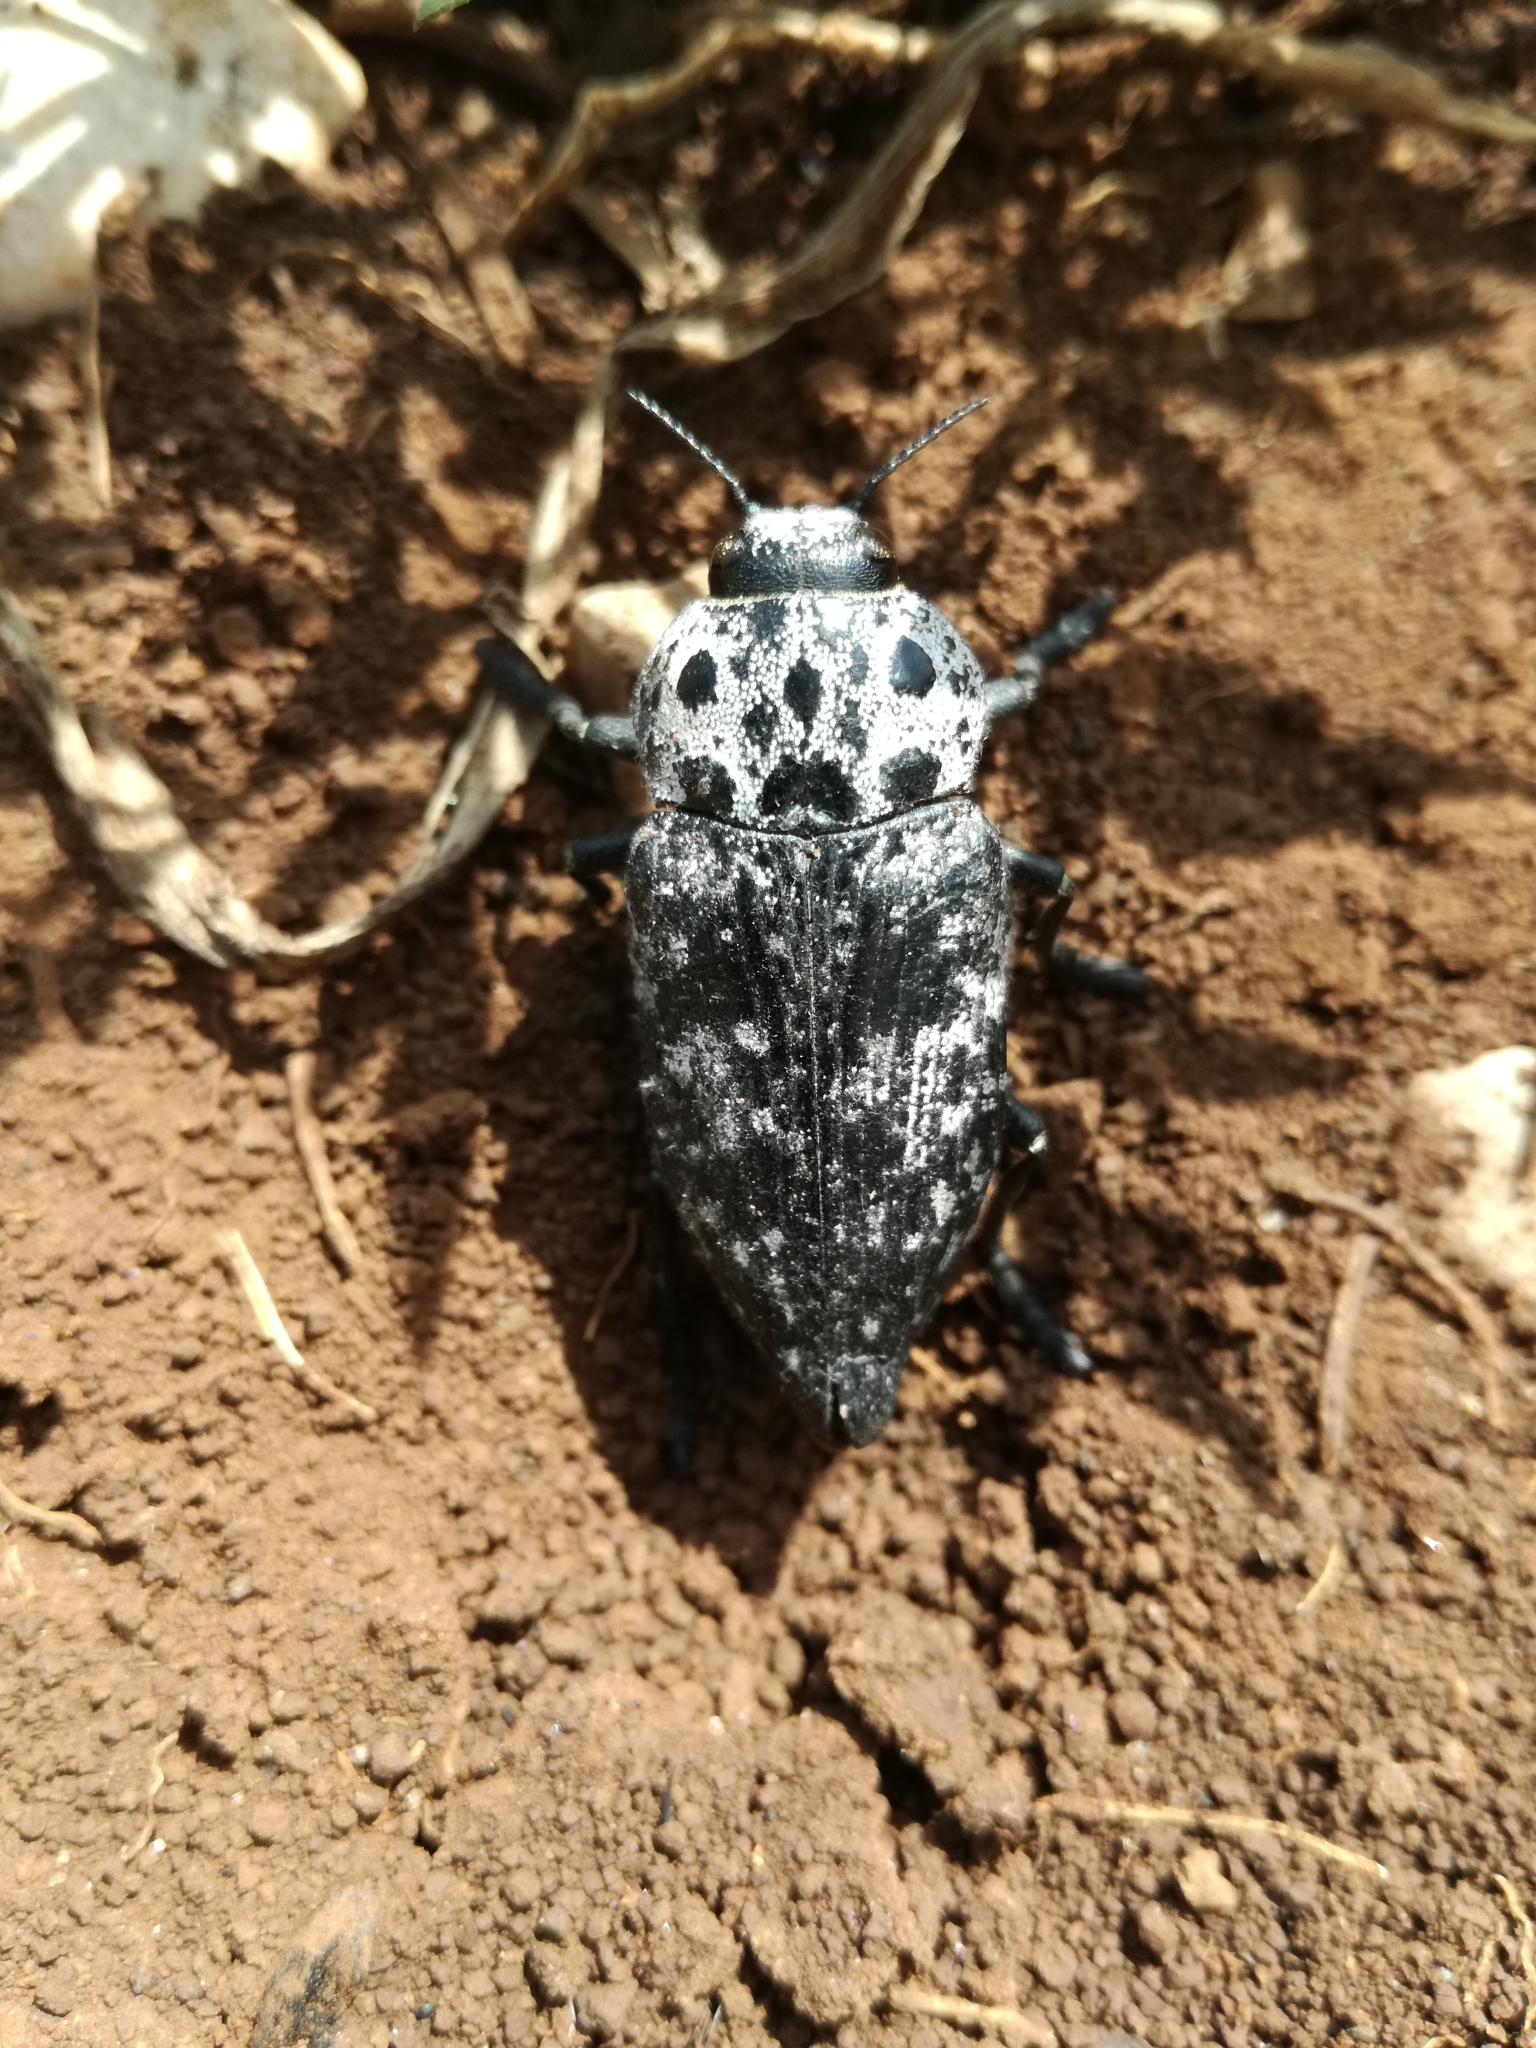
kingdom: Animalia
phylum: Arthropoda
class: Insecta
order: Coleoptera
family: Buprestidae
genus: Capnodis
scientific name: Capnodis cariosa
